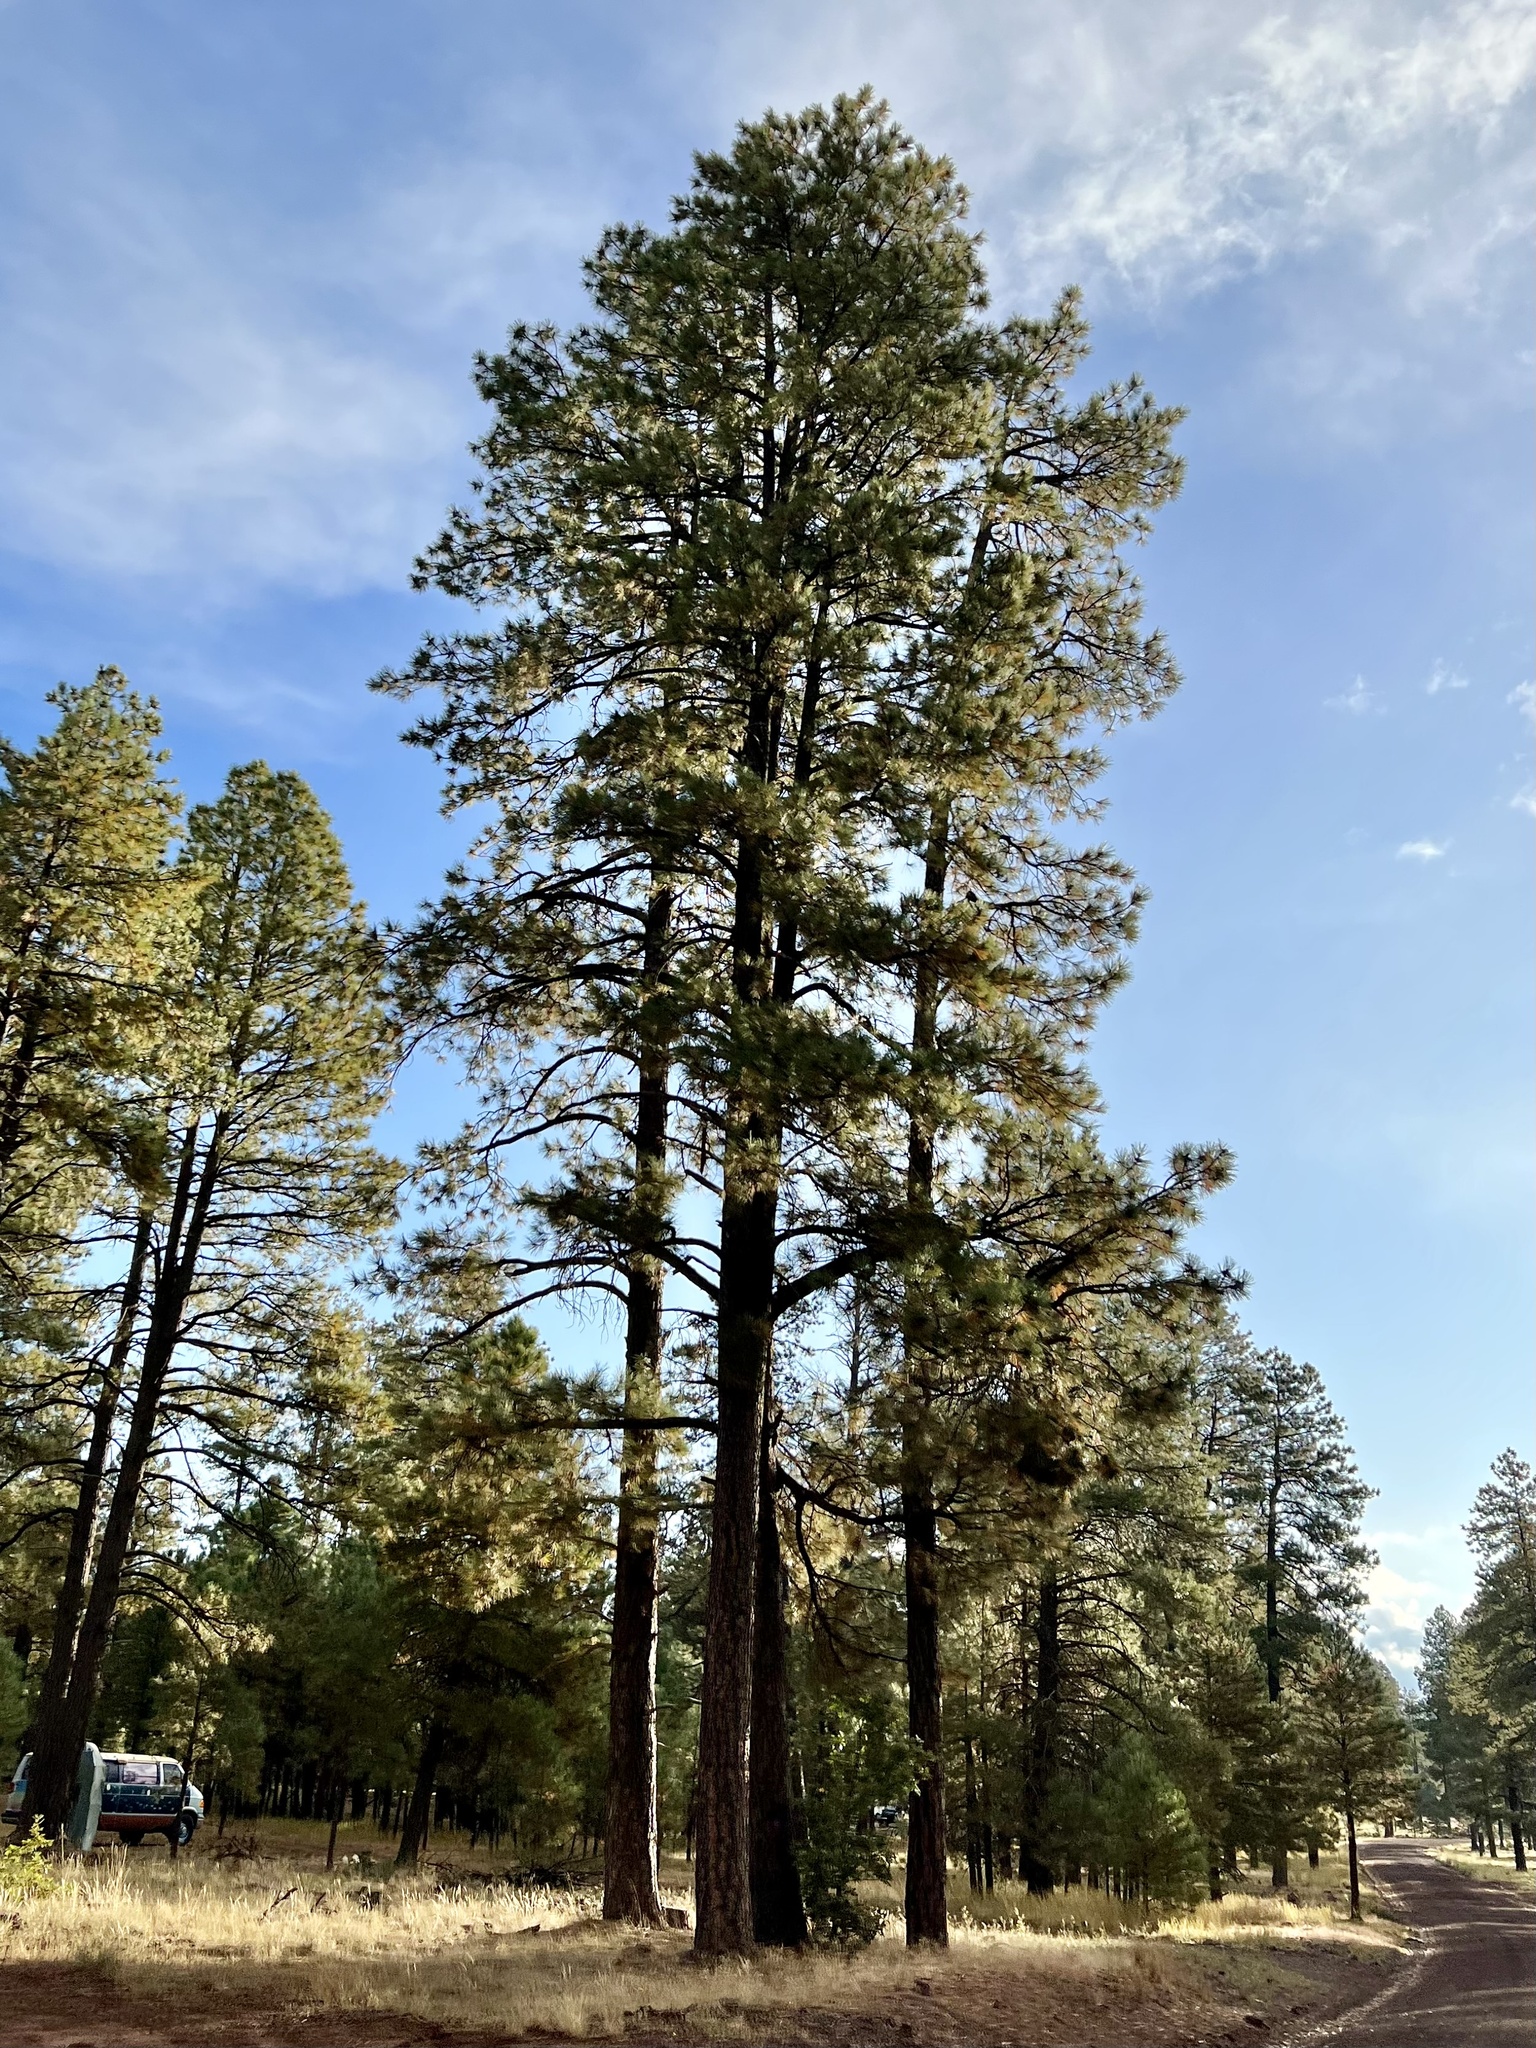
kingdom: Plantae
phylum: Tracheophyta
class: Pinopsida
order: Pinales
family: Pinaceae
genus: Pinus
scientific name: Pinus ponderosa
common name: Western yellow-pine
